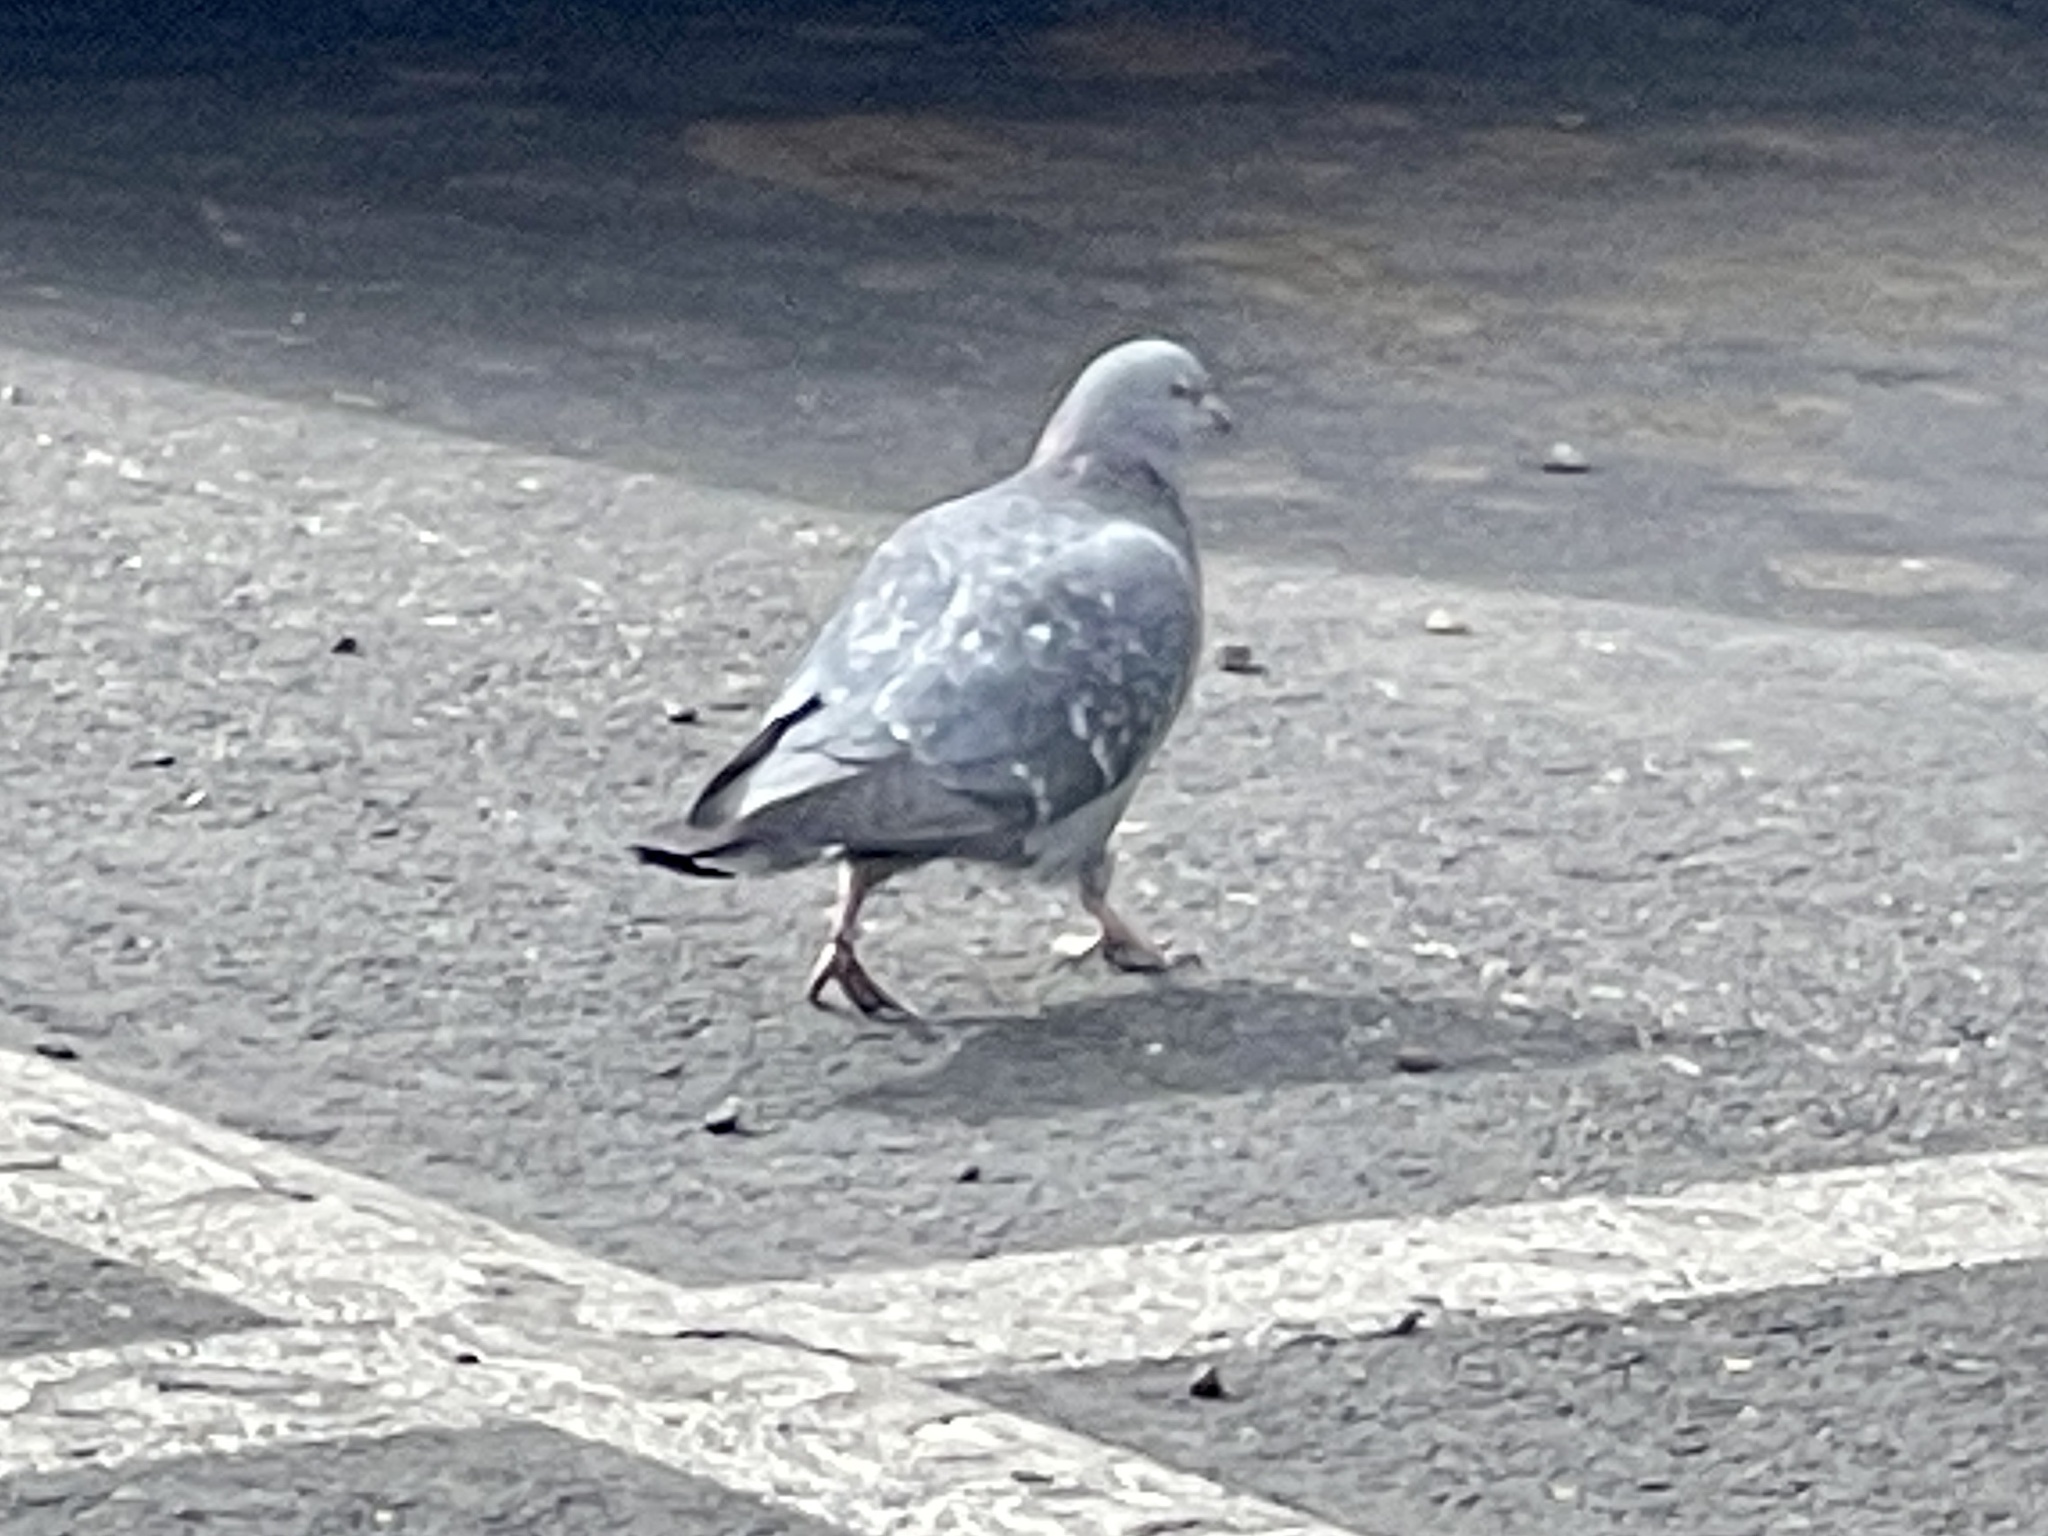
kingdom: Animalia
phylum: Chordata
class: Aves
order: Columbiformes
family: Columbidae
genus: Columba
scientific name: Columba livia
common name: Rock pigeon
